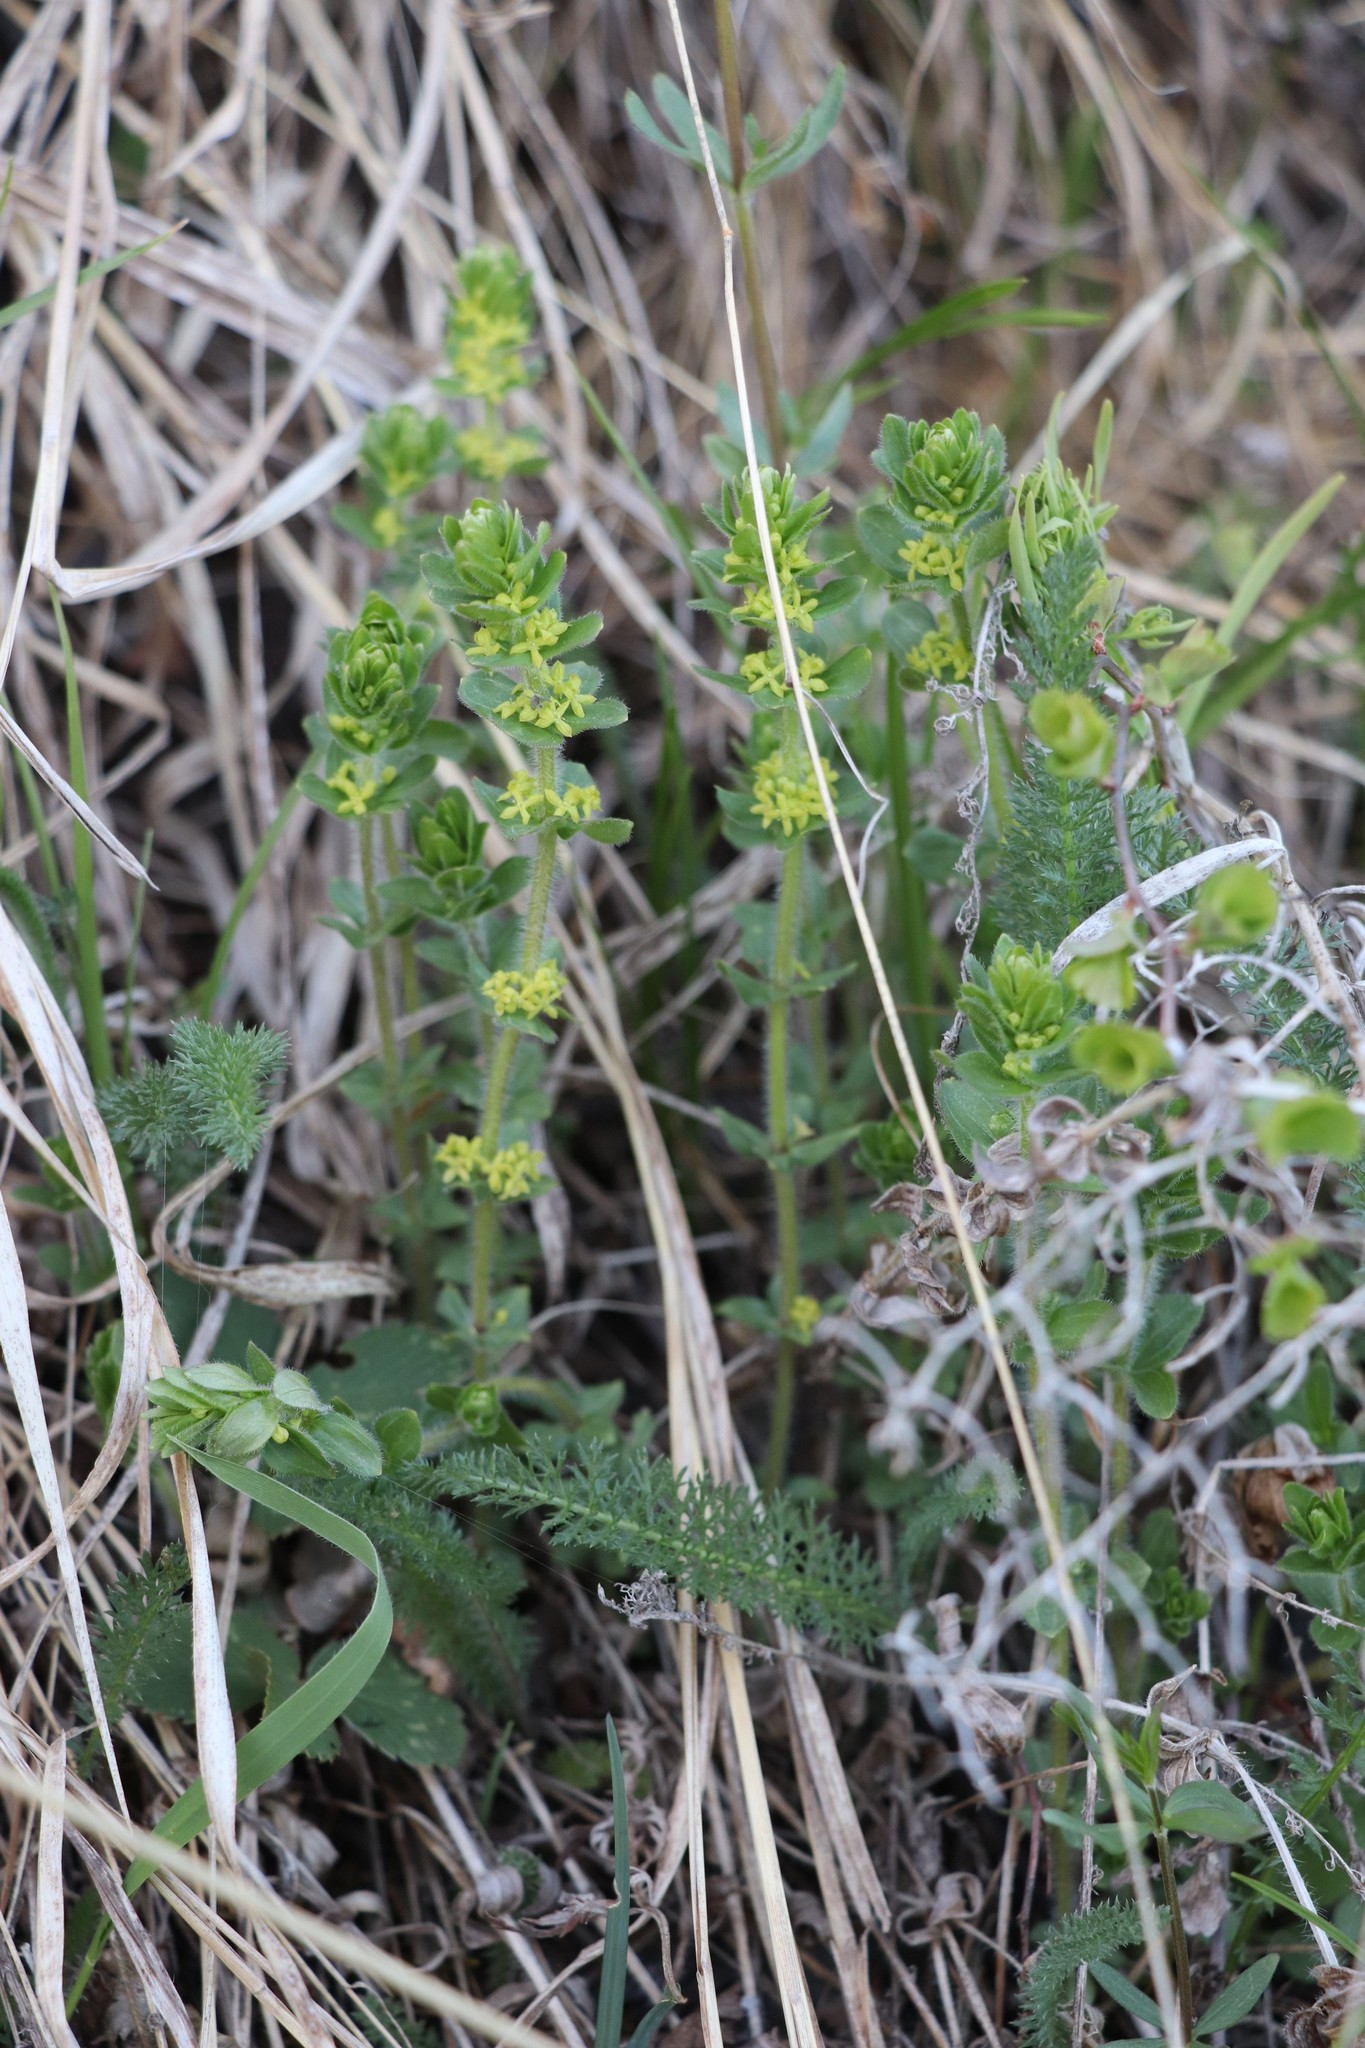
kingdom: Plantae
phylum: Tracheophyta
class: Magnoliopsida
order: Gentianales
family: Rubiaceae
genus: Cruciata
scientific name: Cruciata glabra
